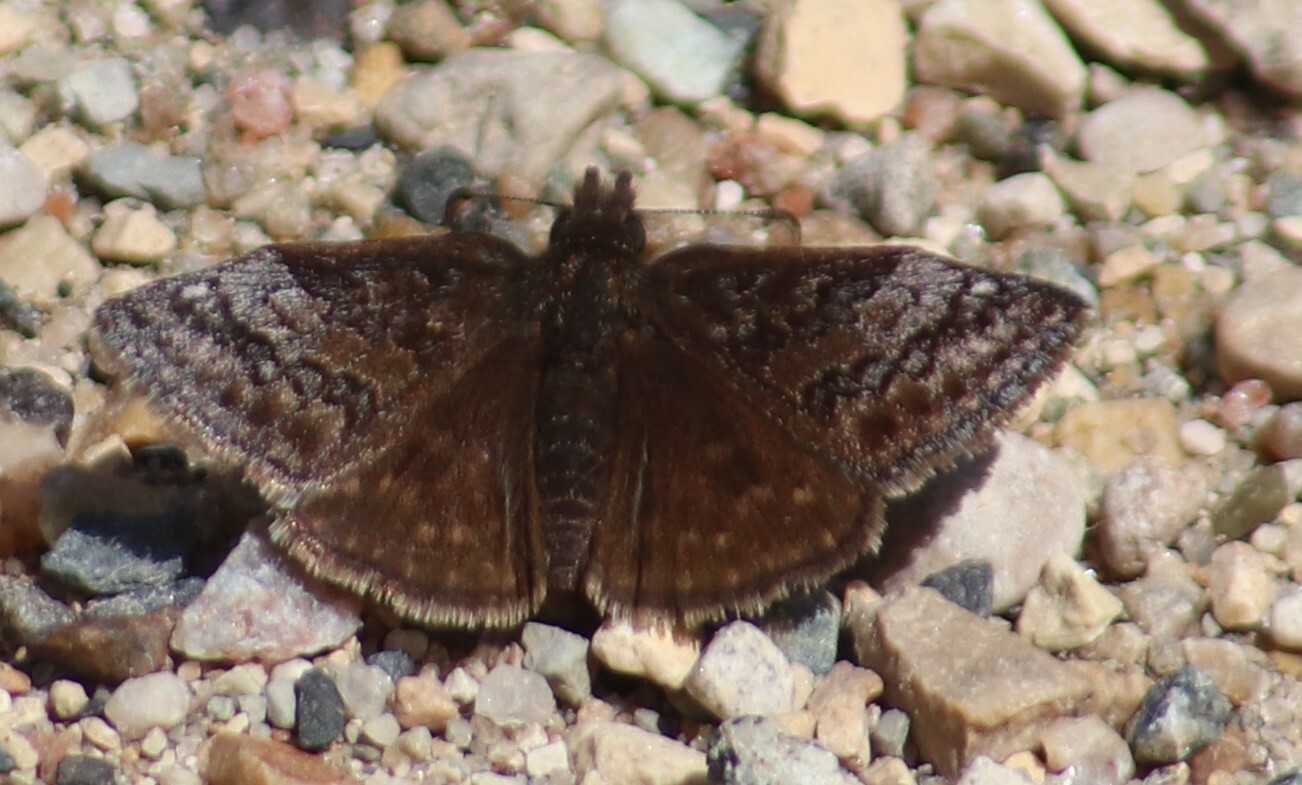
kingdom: Animalia
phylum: Arthropoda
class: Insecta
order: Lepidoptera
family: Hesperiidae
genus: Erynnis
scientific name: Erynnis icelus
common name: Dreamy duskywing
